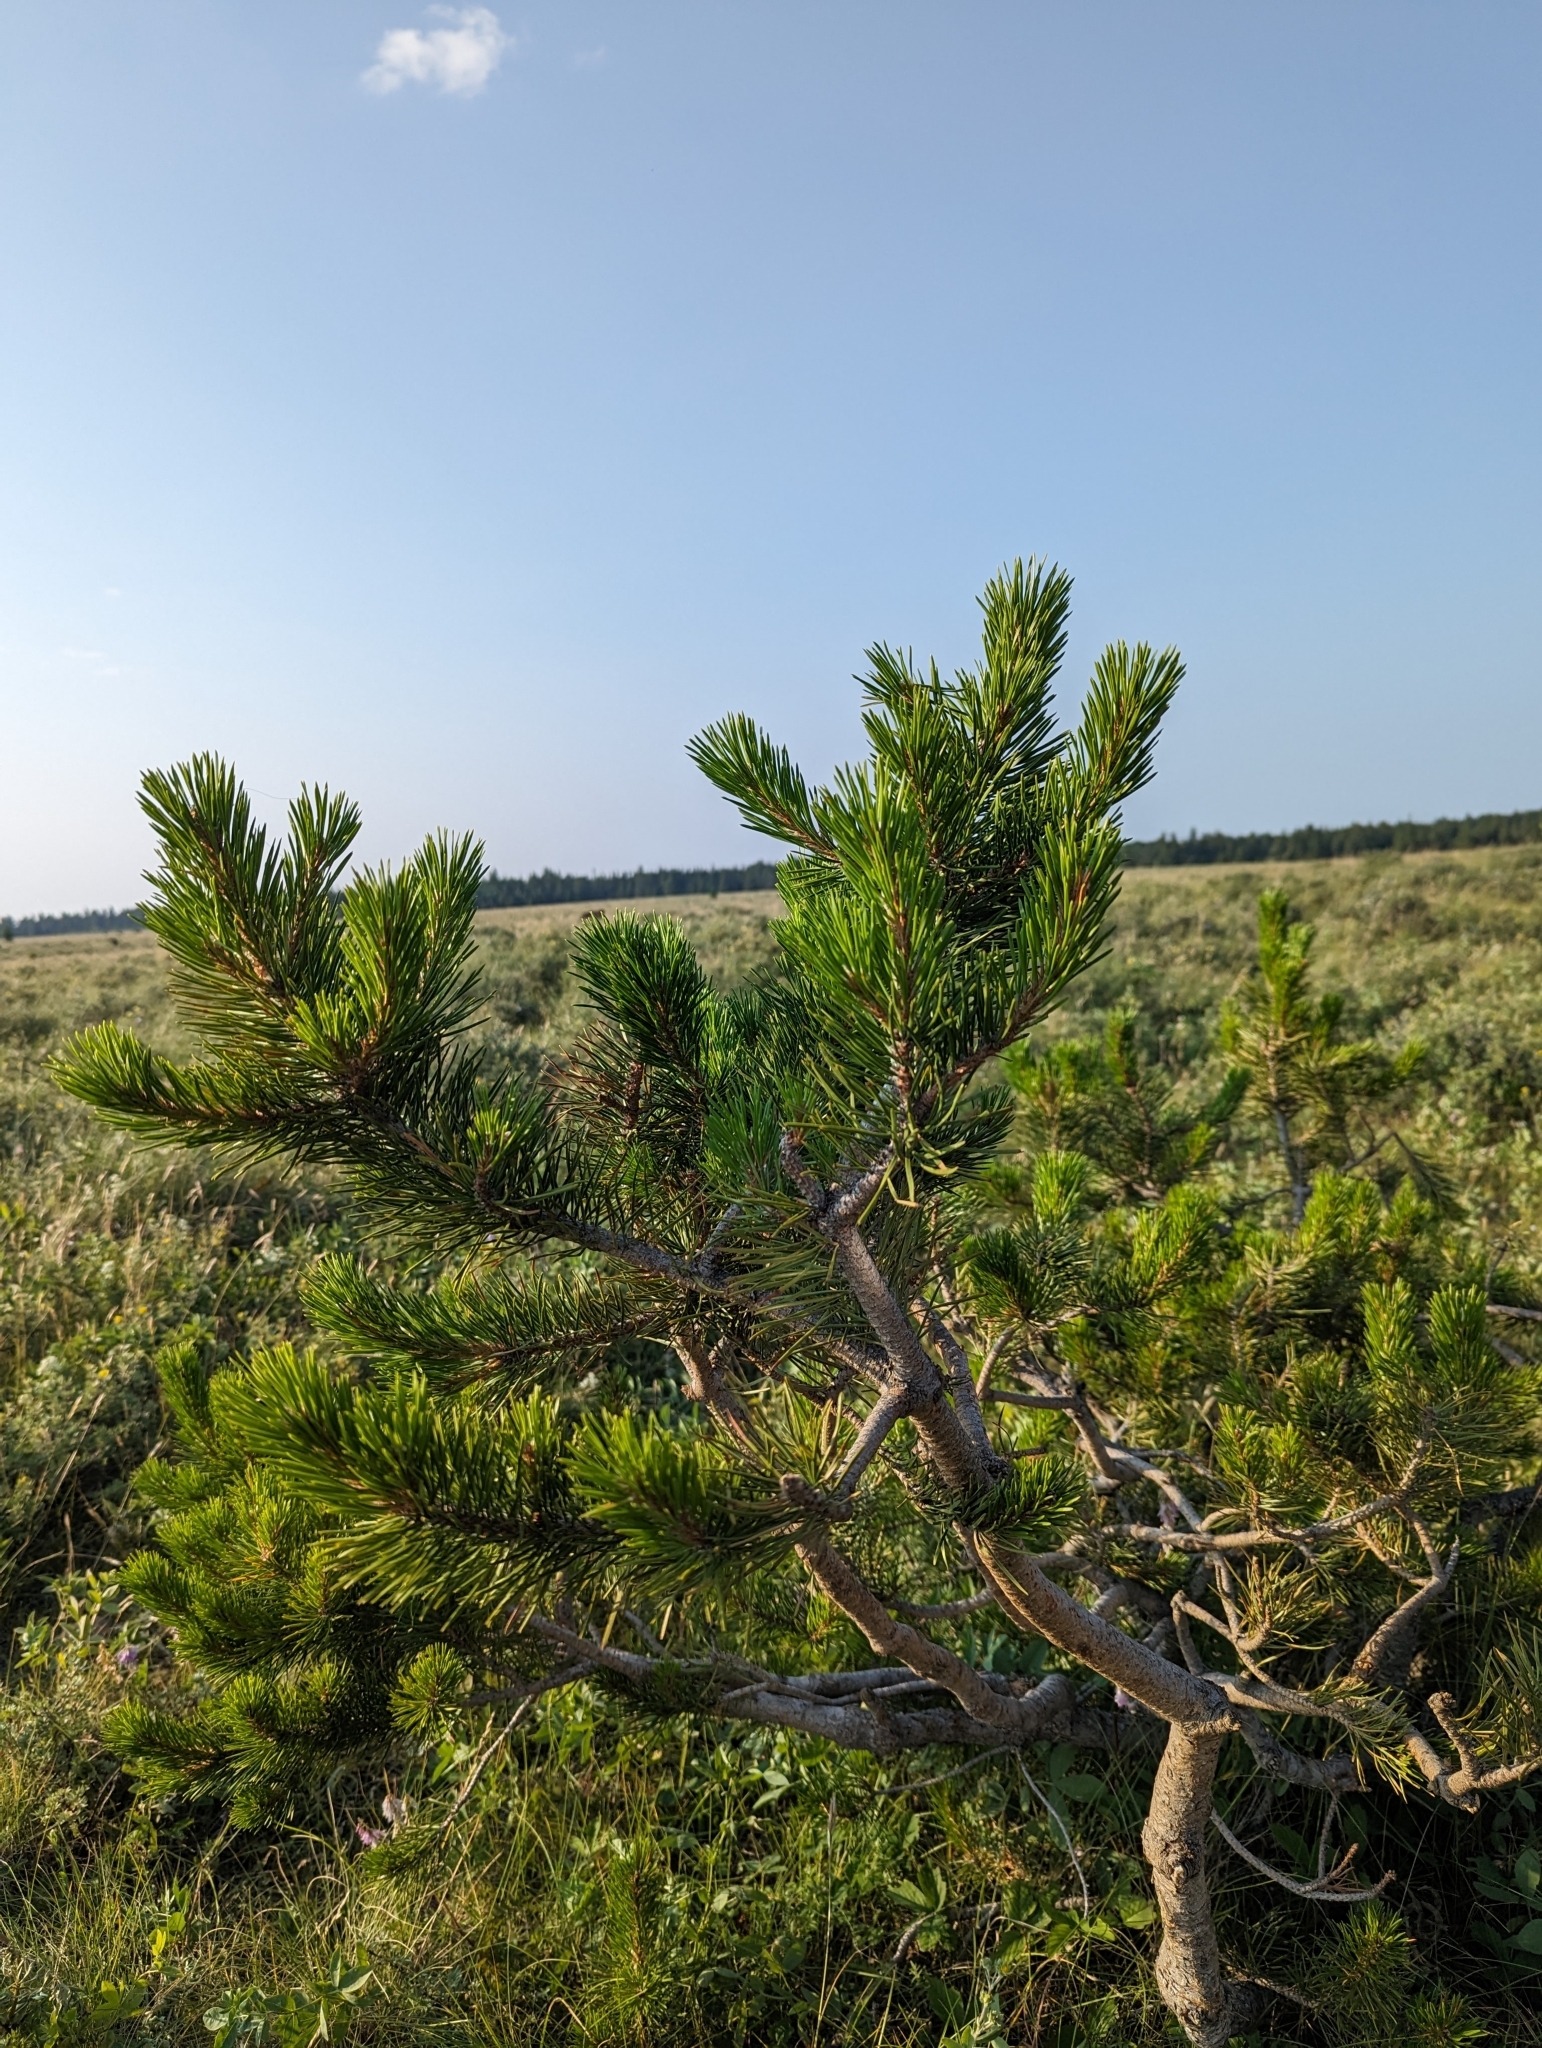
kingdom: Plantae
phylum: Tracheophyta
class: Pinopsida
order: Pinales
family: Pinaceae
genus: Pinus
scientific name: Pinus contorta
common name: Lodgepole pine
